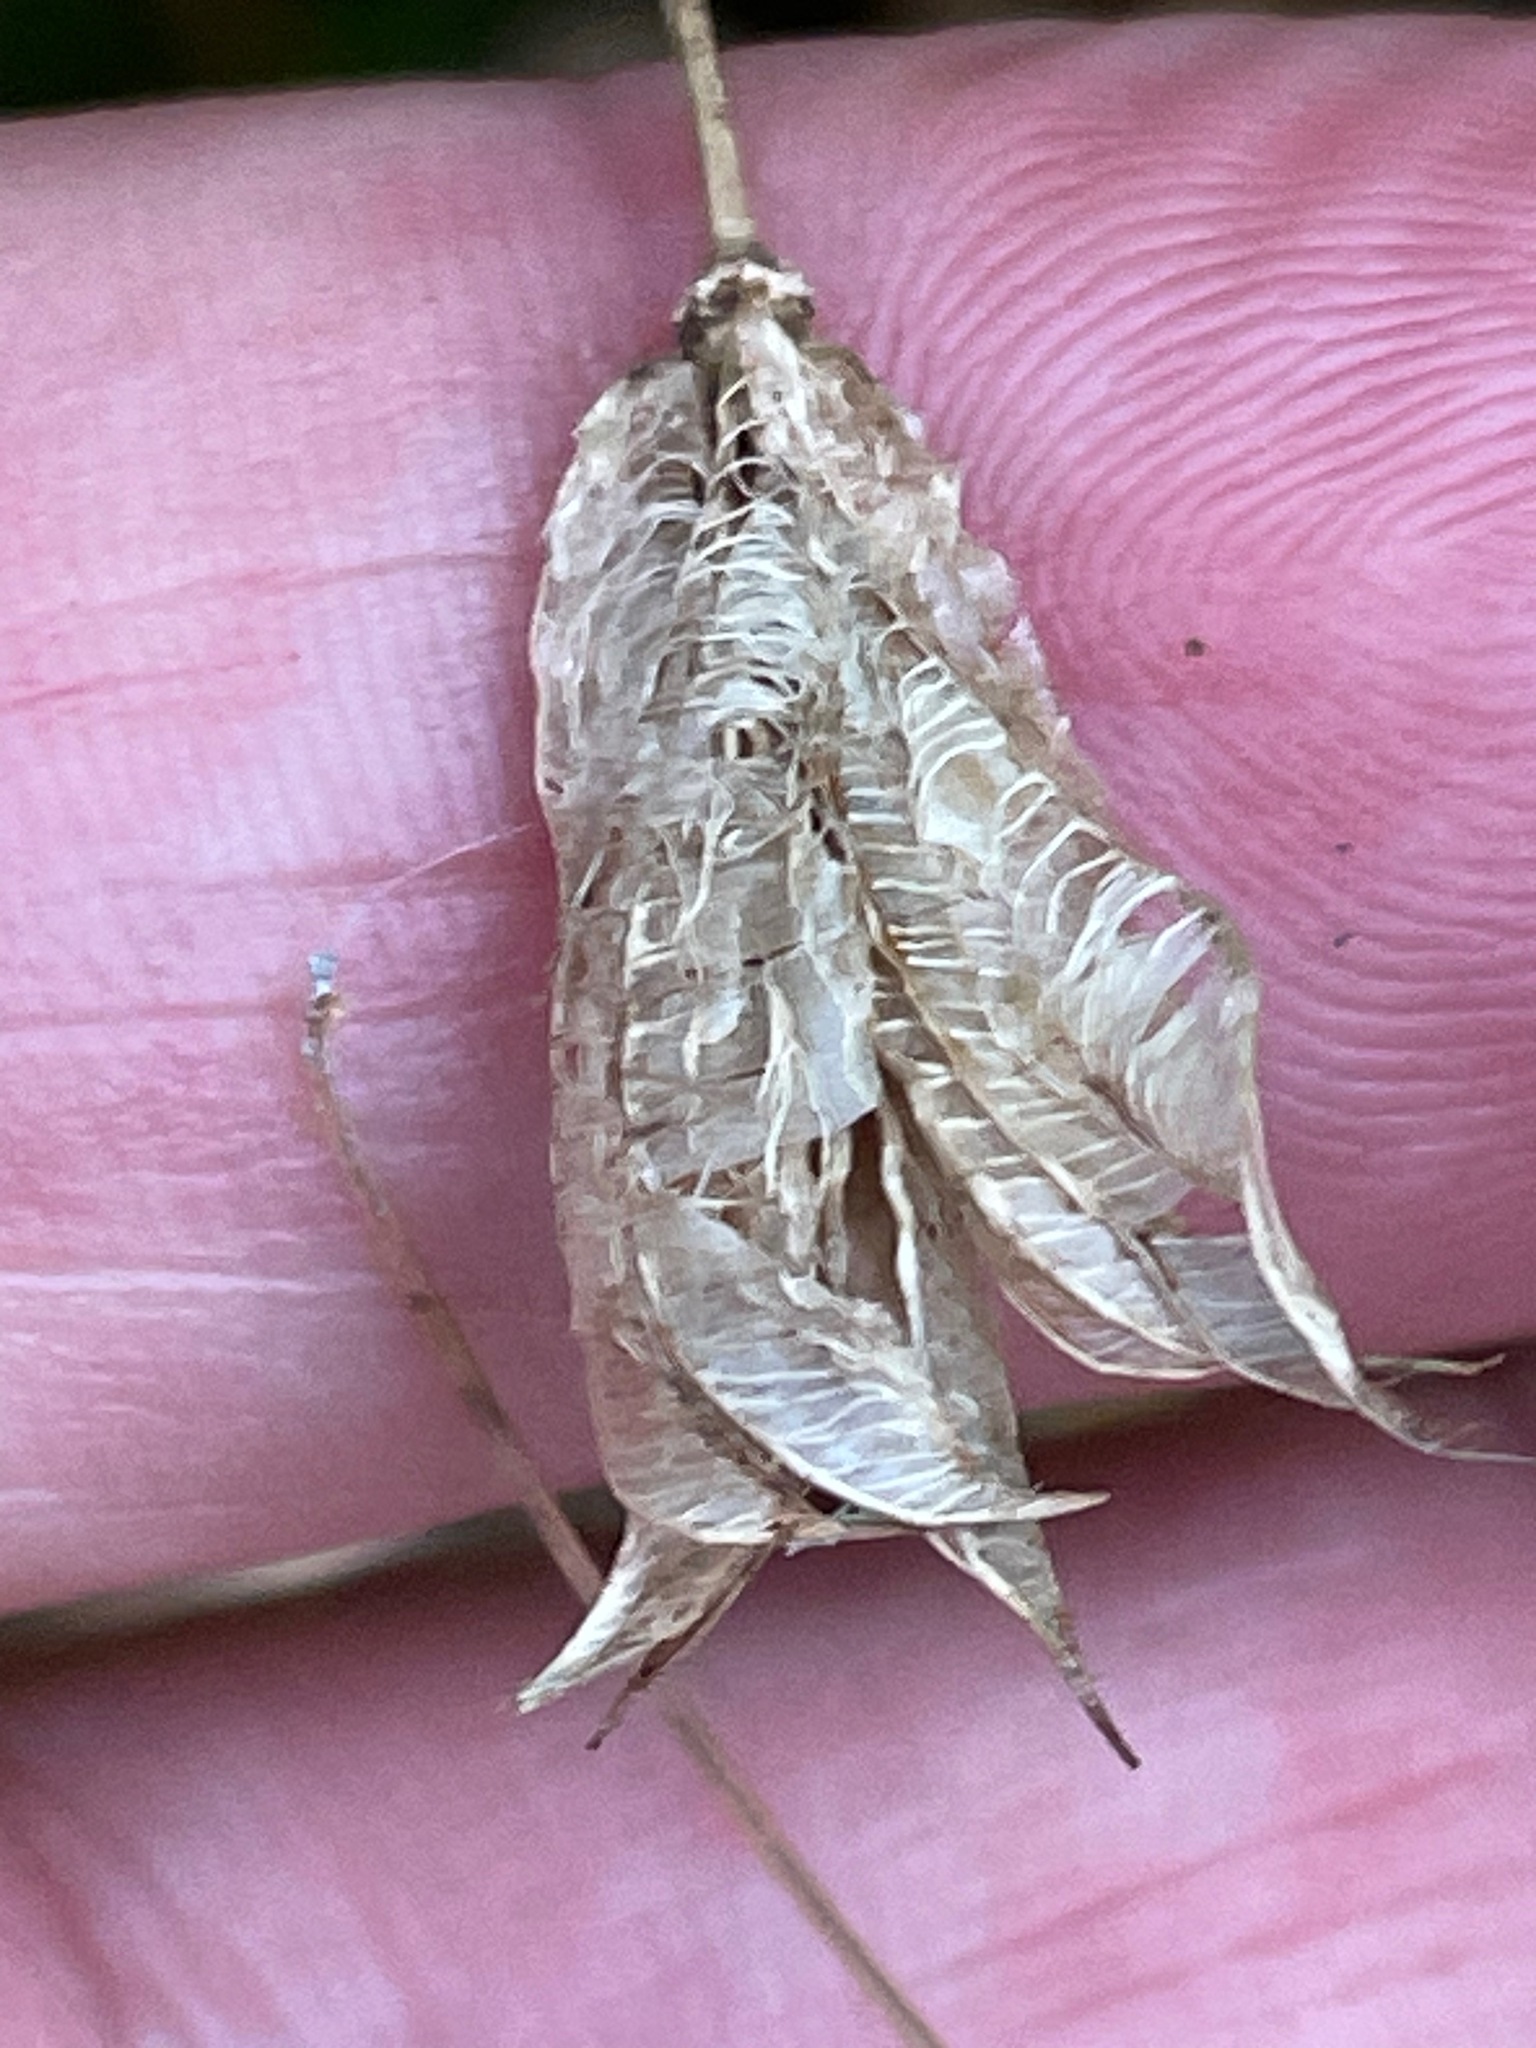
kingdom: Plantae
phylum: Tracheophyta
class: Magnoliopsida
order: Ranunculales
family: Ranunculaceae
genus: Aquilegia
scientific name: Aquilegia canadensis
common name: American columbine
